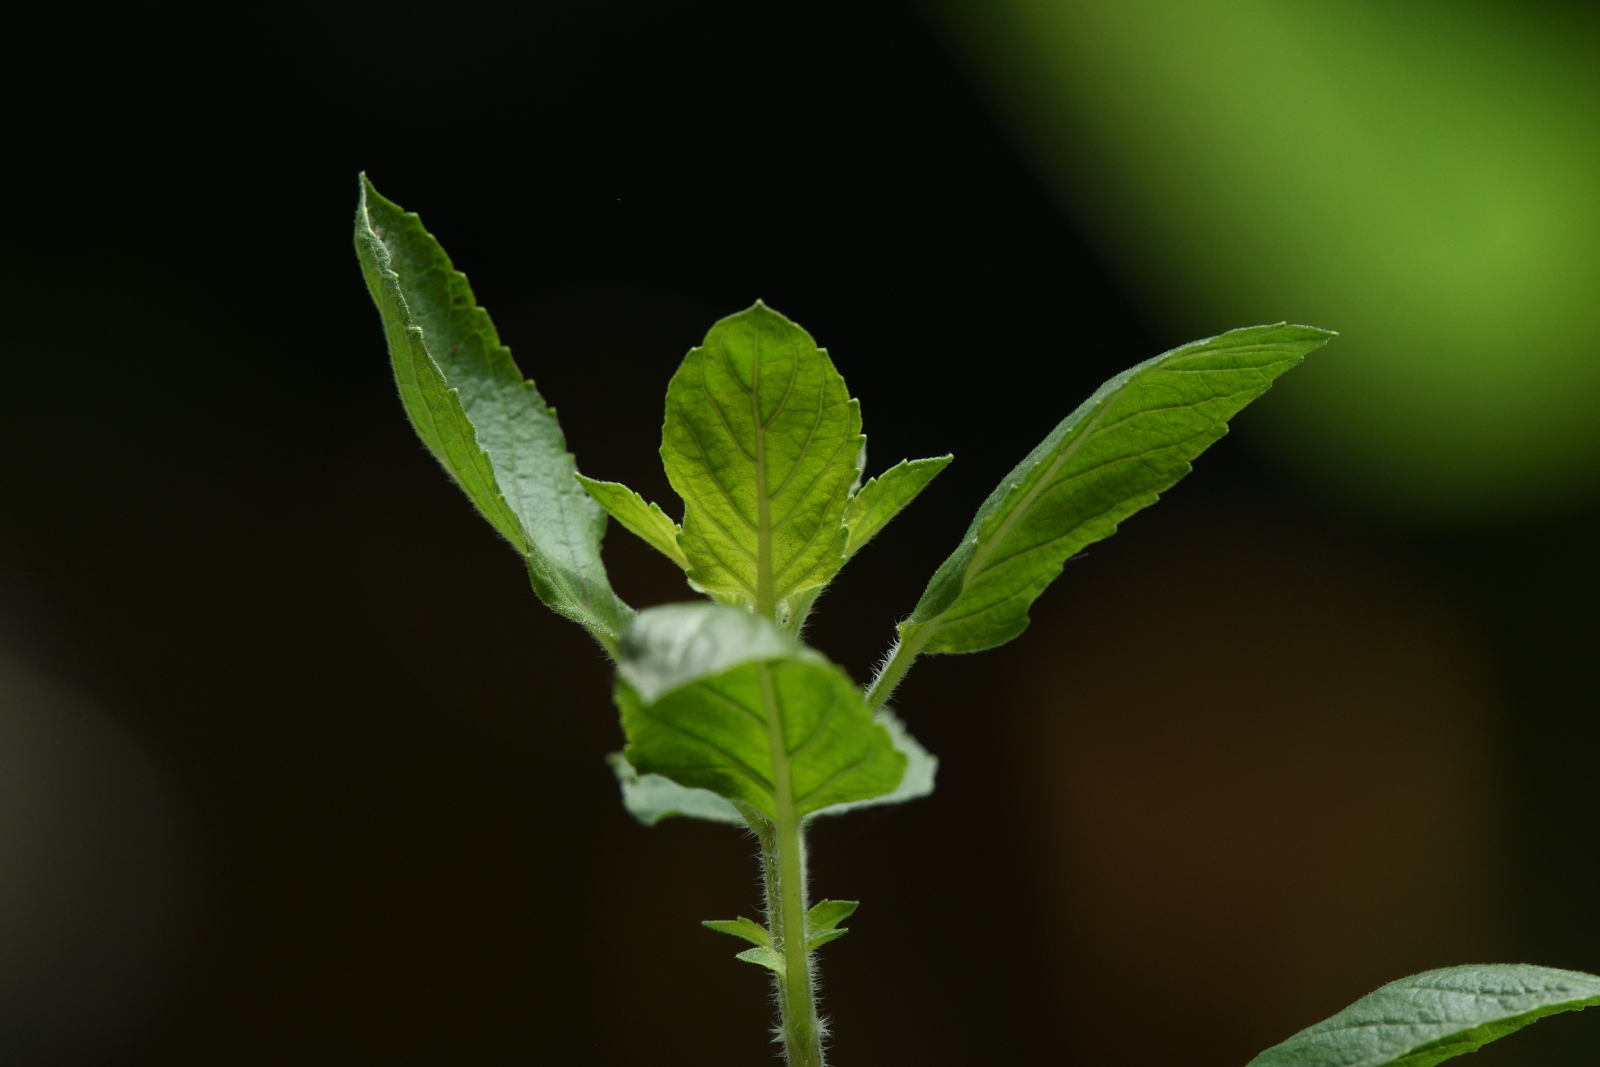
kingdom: Plantae
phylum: Tracheophyta
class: Magnoliopsida
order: Lamiales
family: Lamiaceae
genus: Ocimum
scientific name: Ocimum tenuiflorum
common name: Sacred basil
